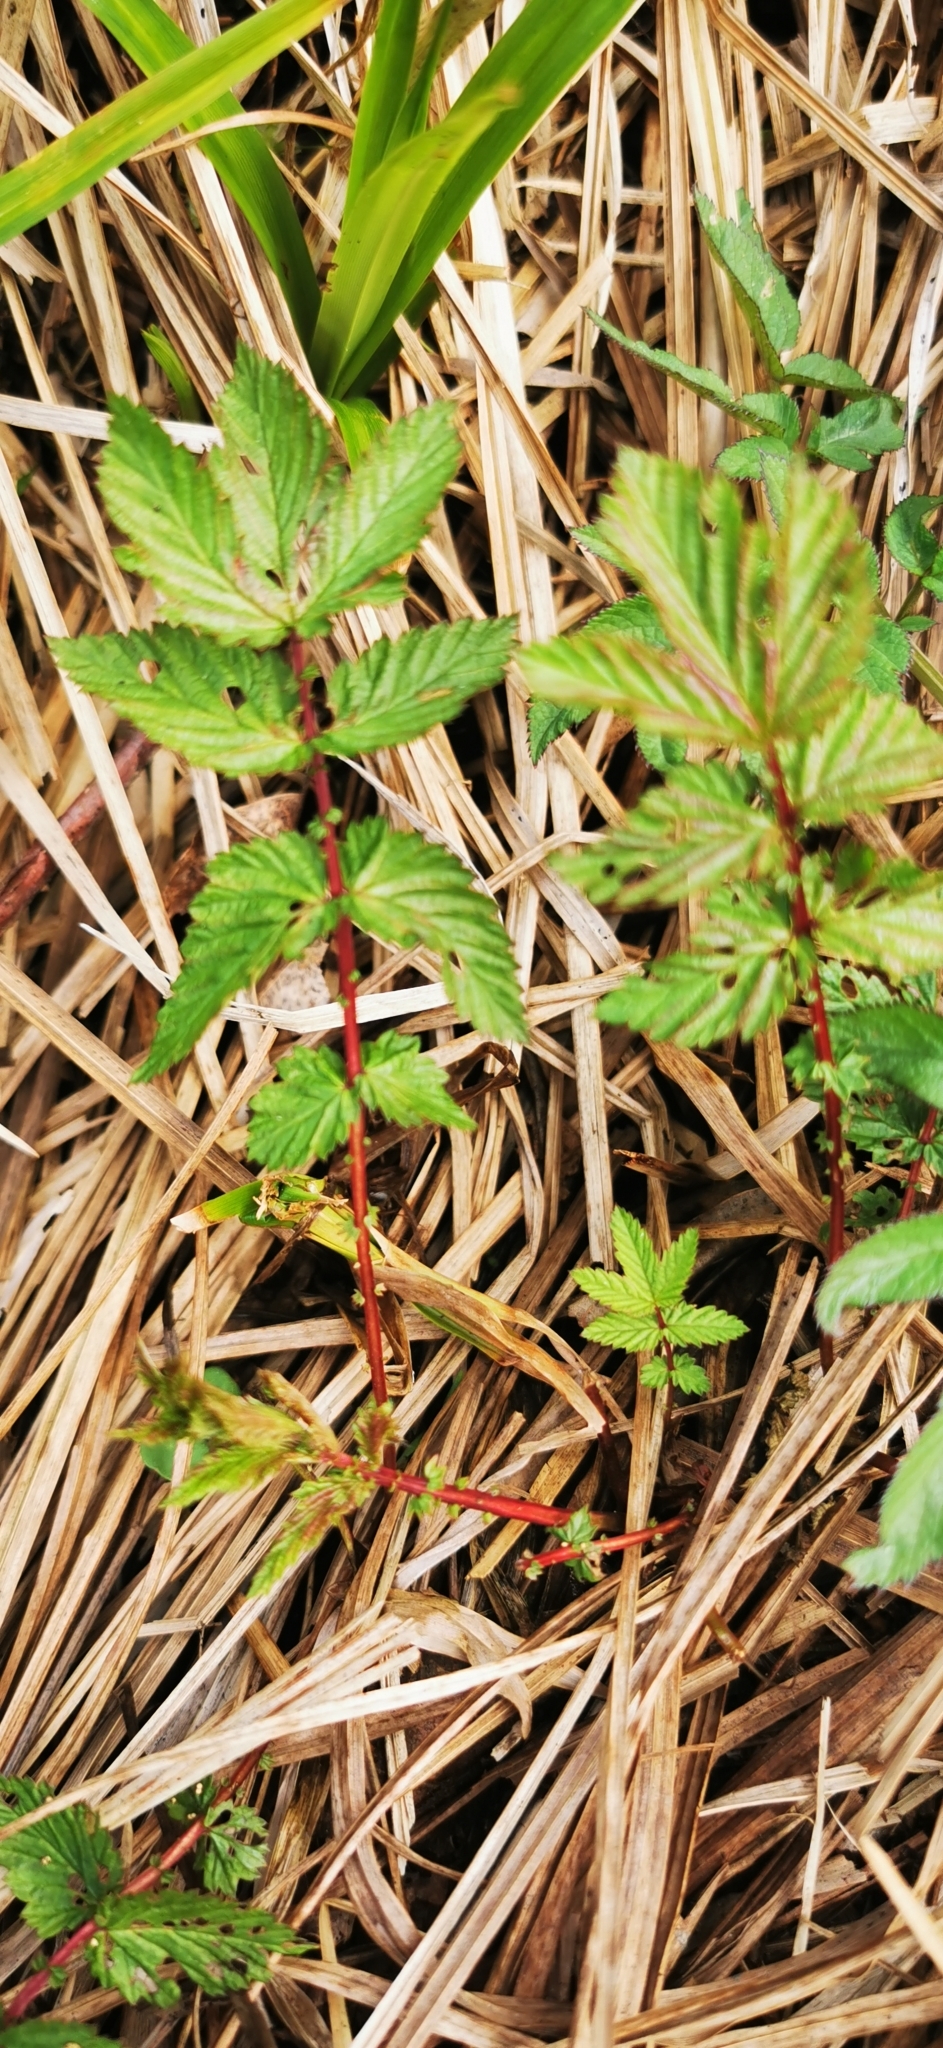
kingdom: Plantae
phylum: Tracheophyta
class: Magnoliopsida
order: Rosales
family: Rosaceae
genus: Filipendula
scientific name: Filipendula ulmaria
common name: Meadowsweet
